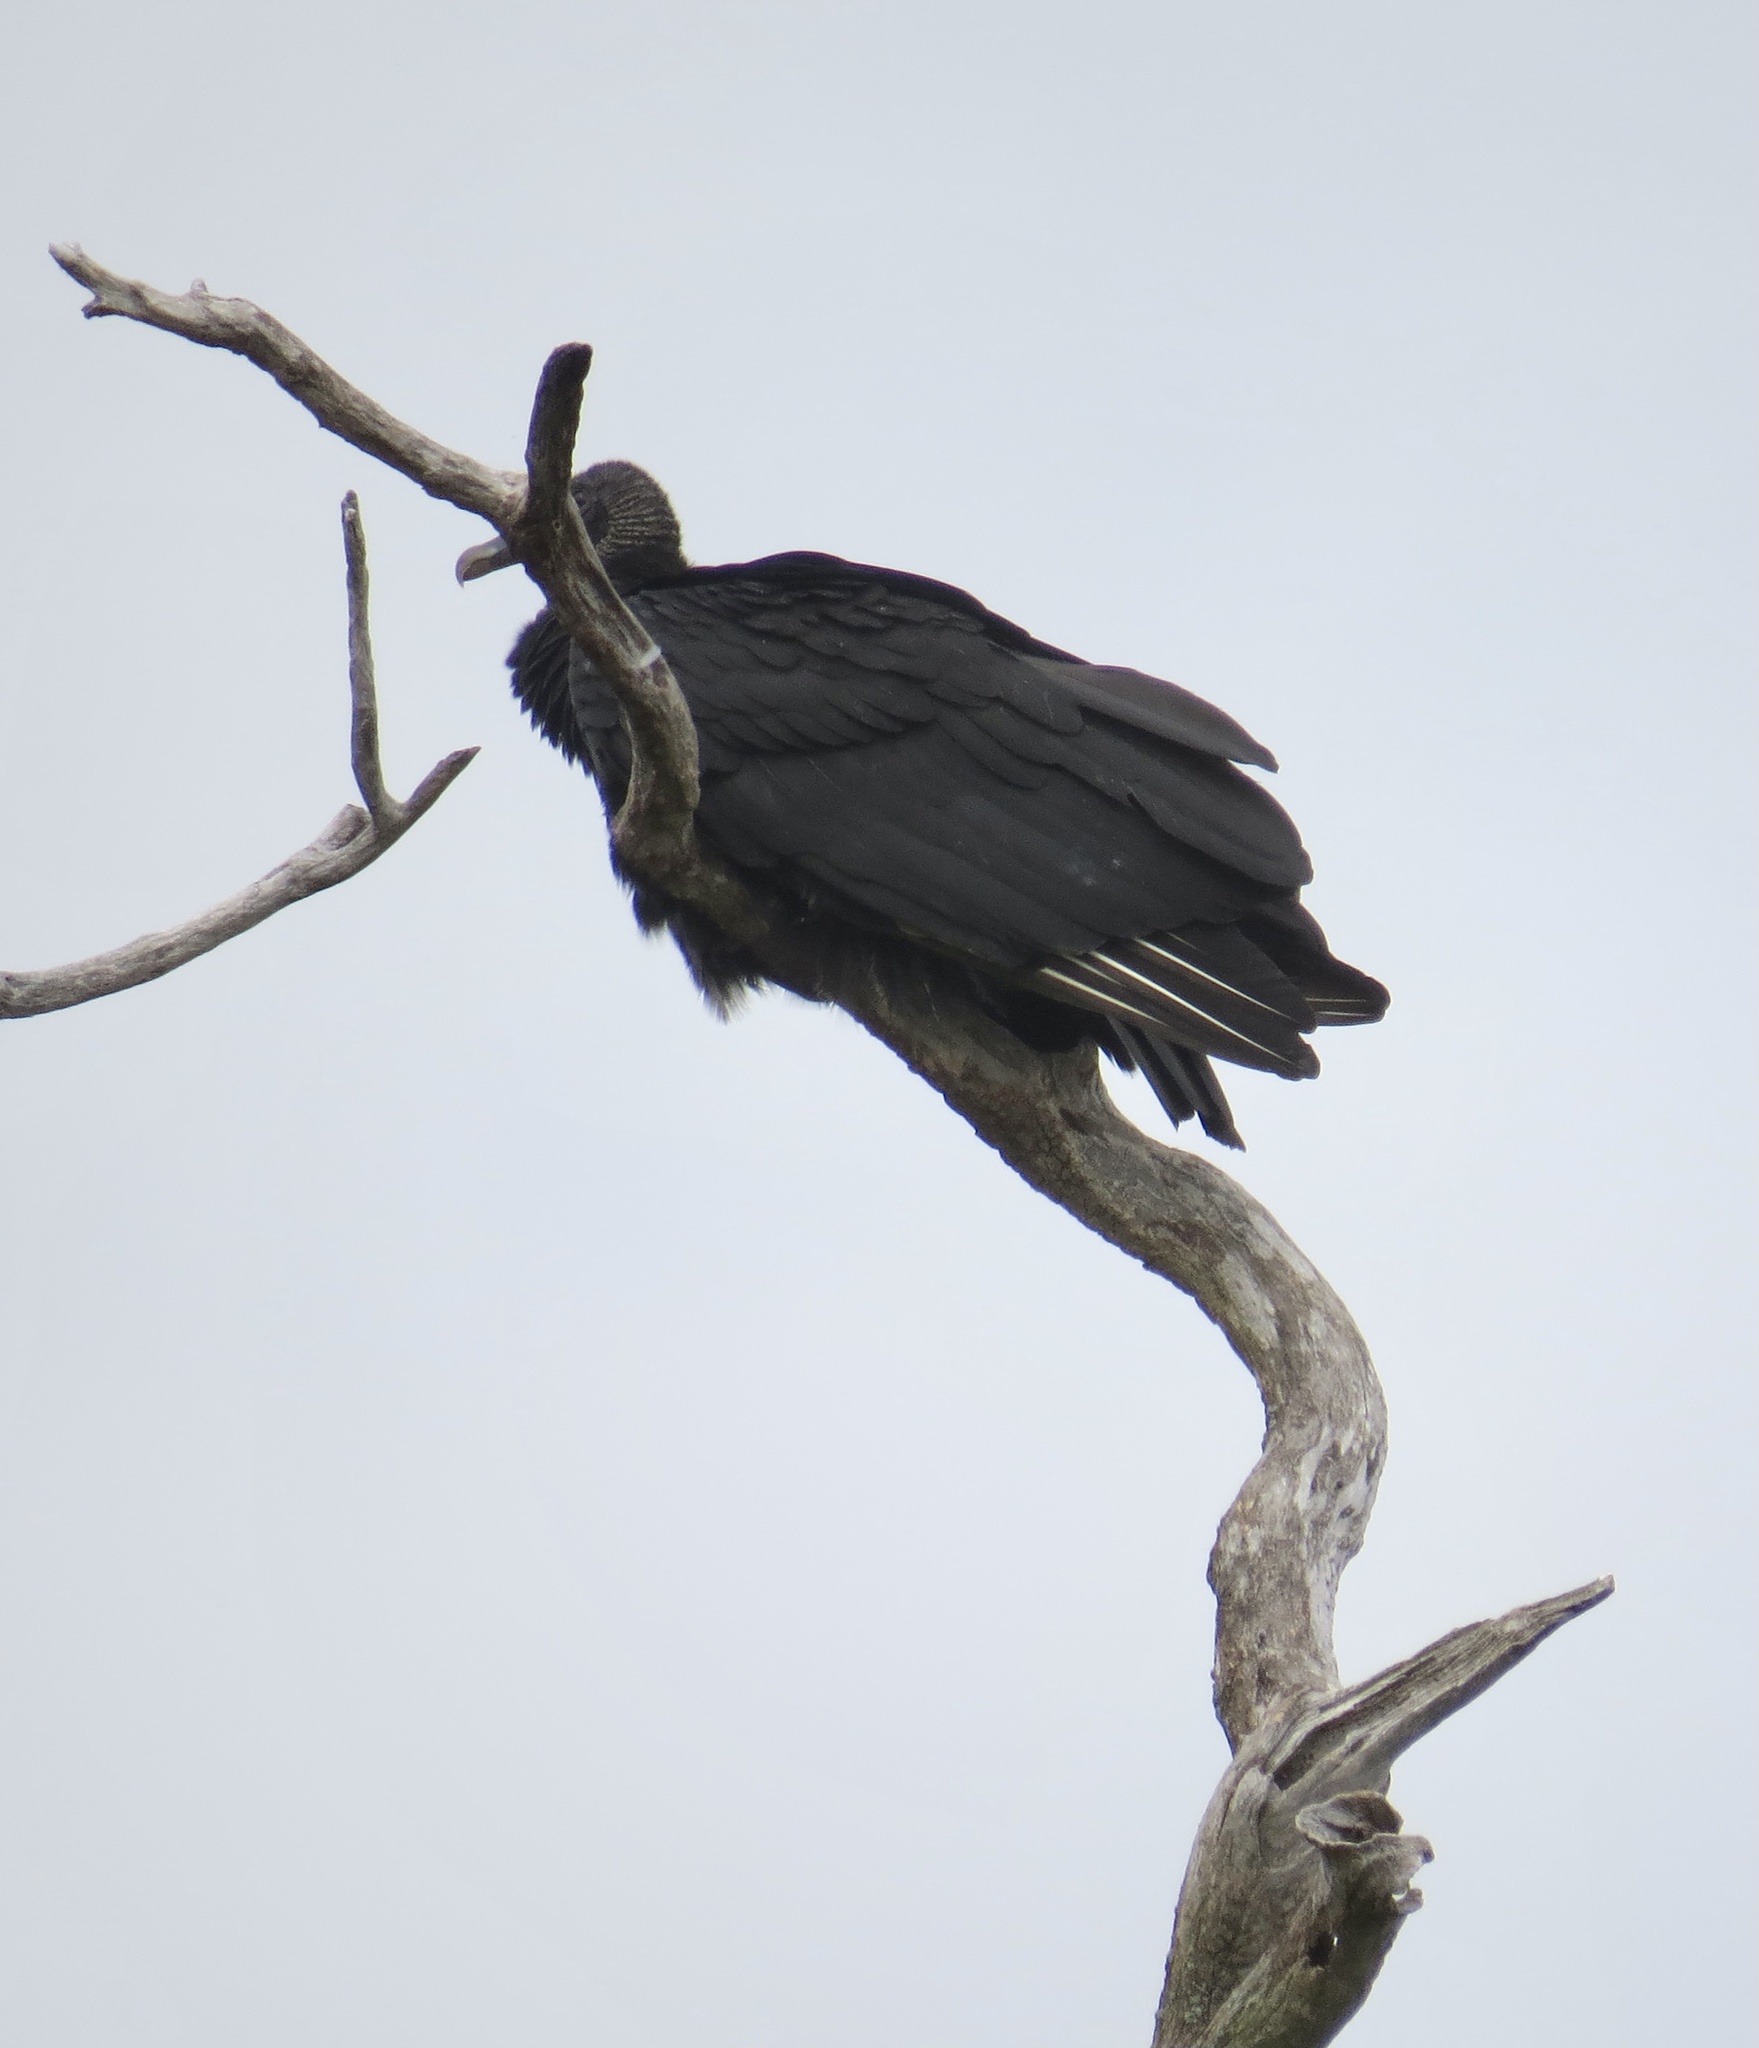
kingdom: Animalia
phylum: Chordata
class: Aves
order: Accipitriformes
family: Cathartidae
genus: Coragyps
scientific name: Coragyps atratus
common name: Black vulture
